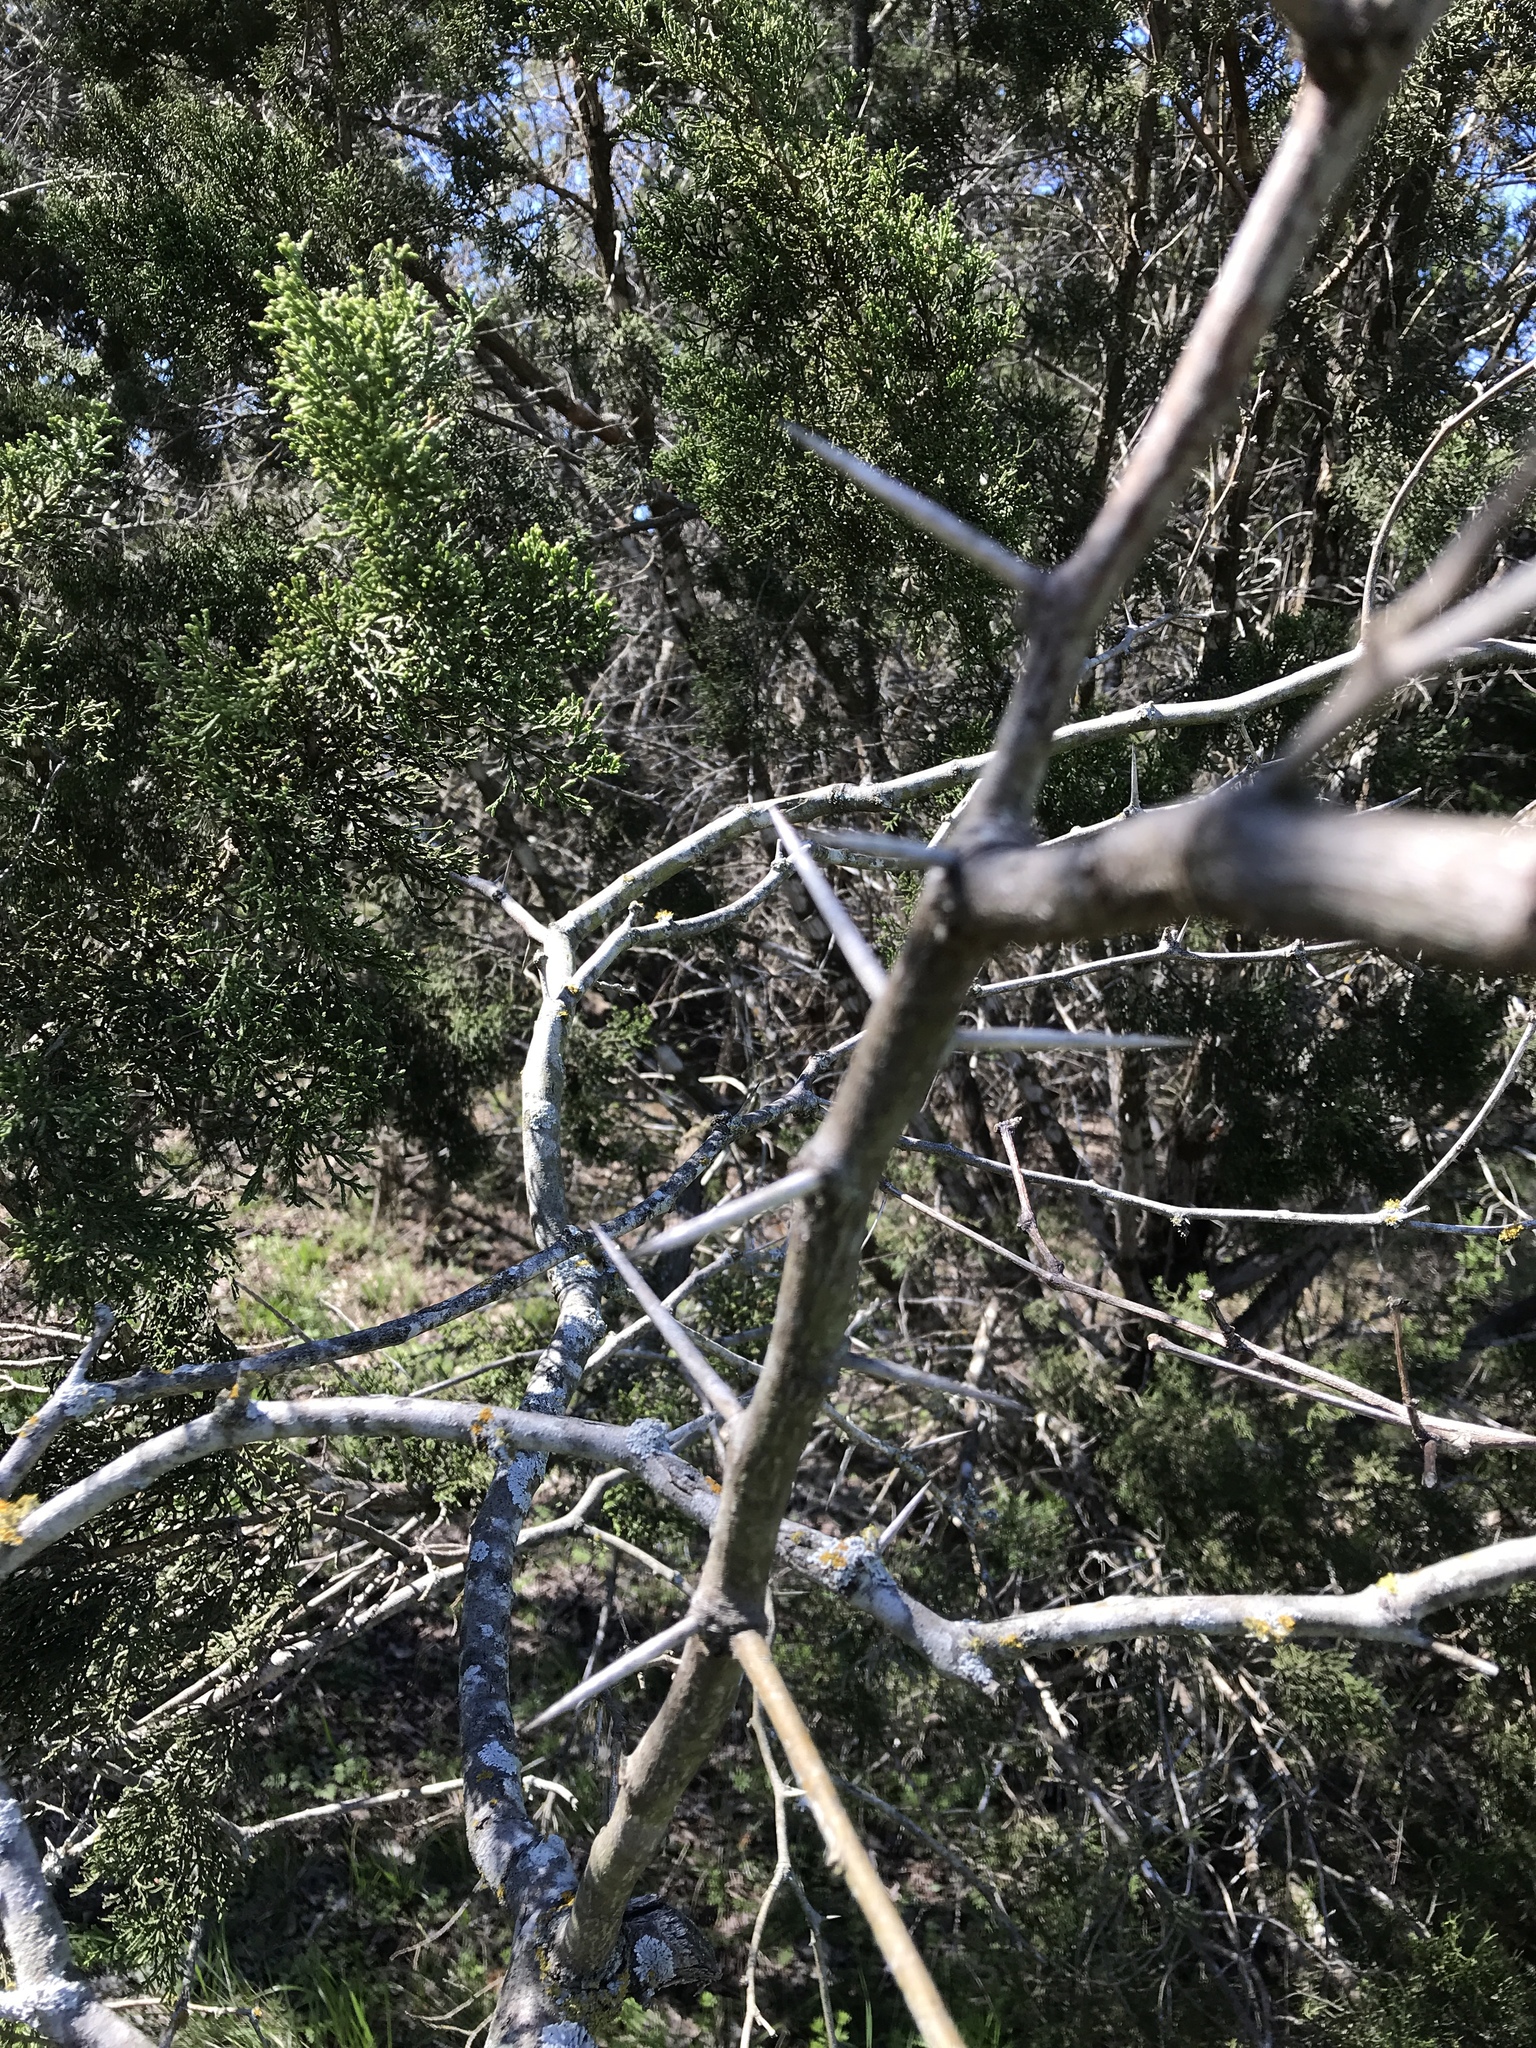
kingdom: Plantae
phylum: Tracheophyta
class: Magnoliopsida
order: Fabales
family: Fabaceae
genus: Prosopis
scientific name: Prosopis glandulosa
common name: Honey mesquite
